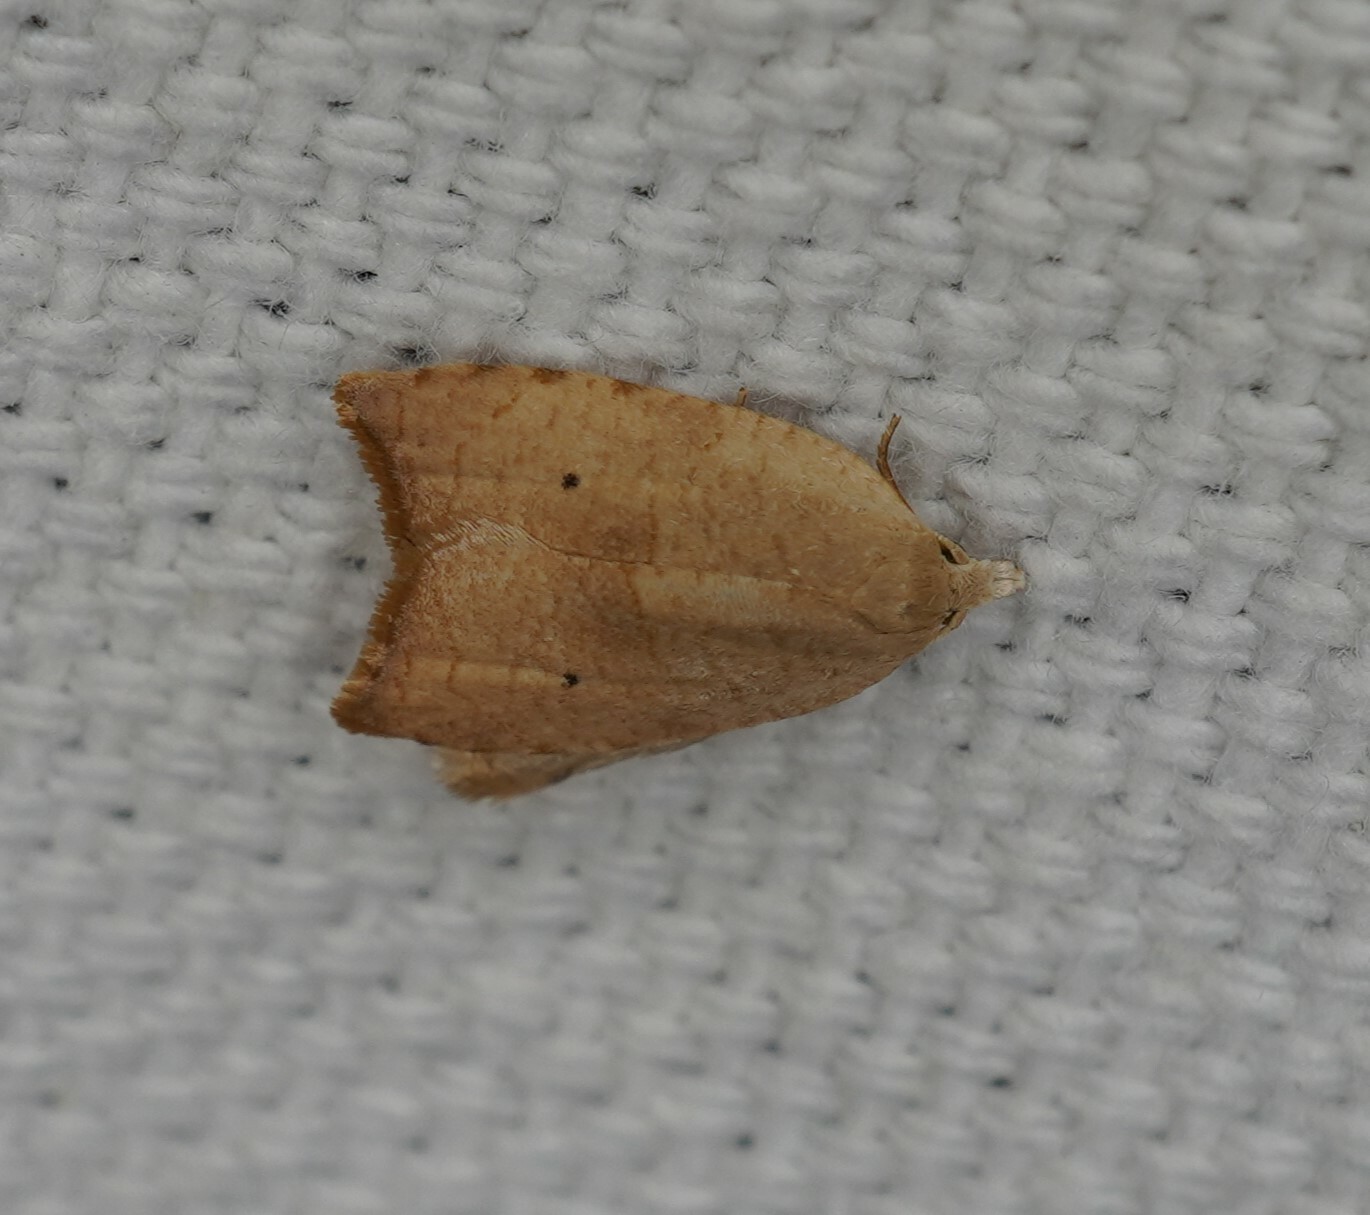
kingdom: Animalia
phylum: Arthropoda
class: Insecta
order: Lepidoptera
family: Tortricidae
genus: Coelostathma
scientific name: Coelostathma discopunctana
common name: Batman moth
